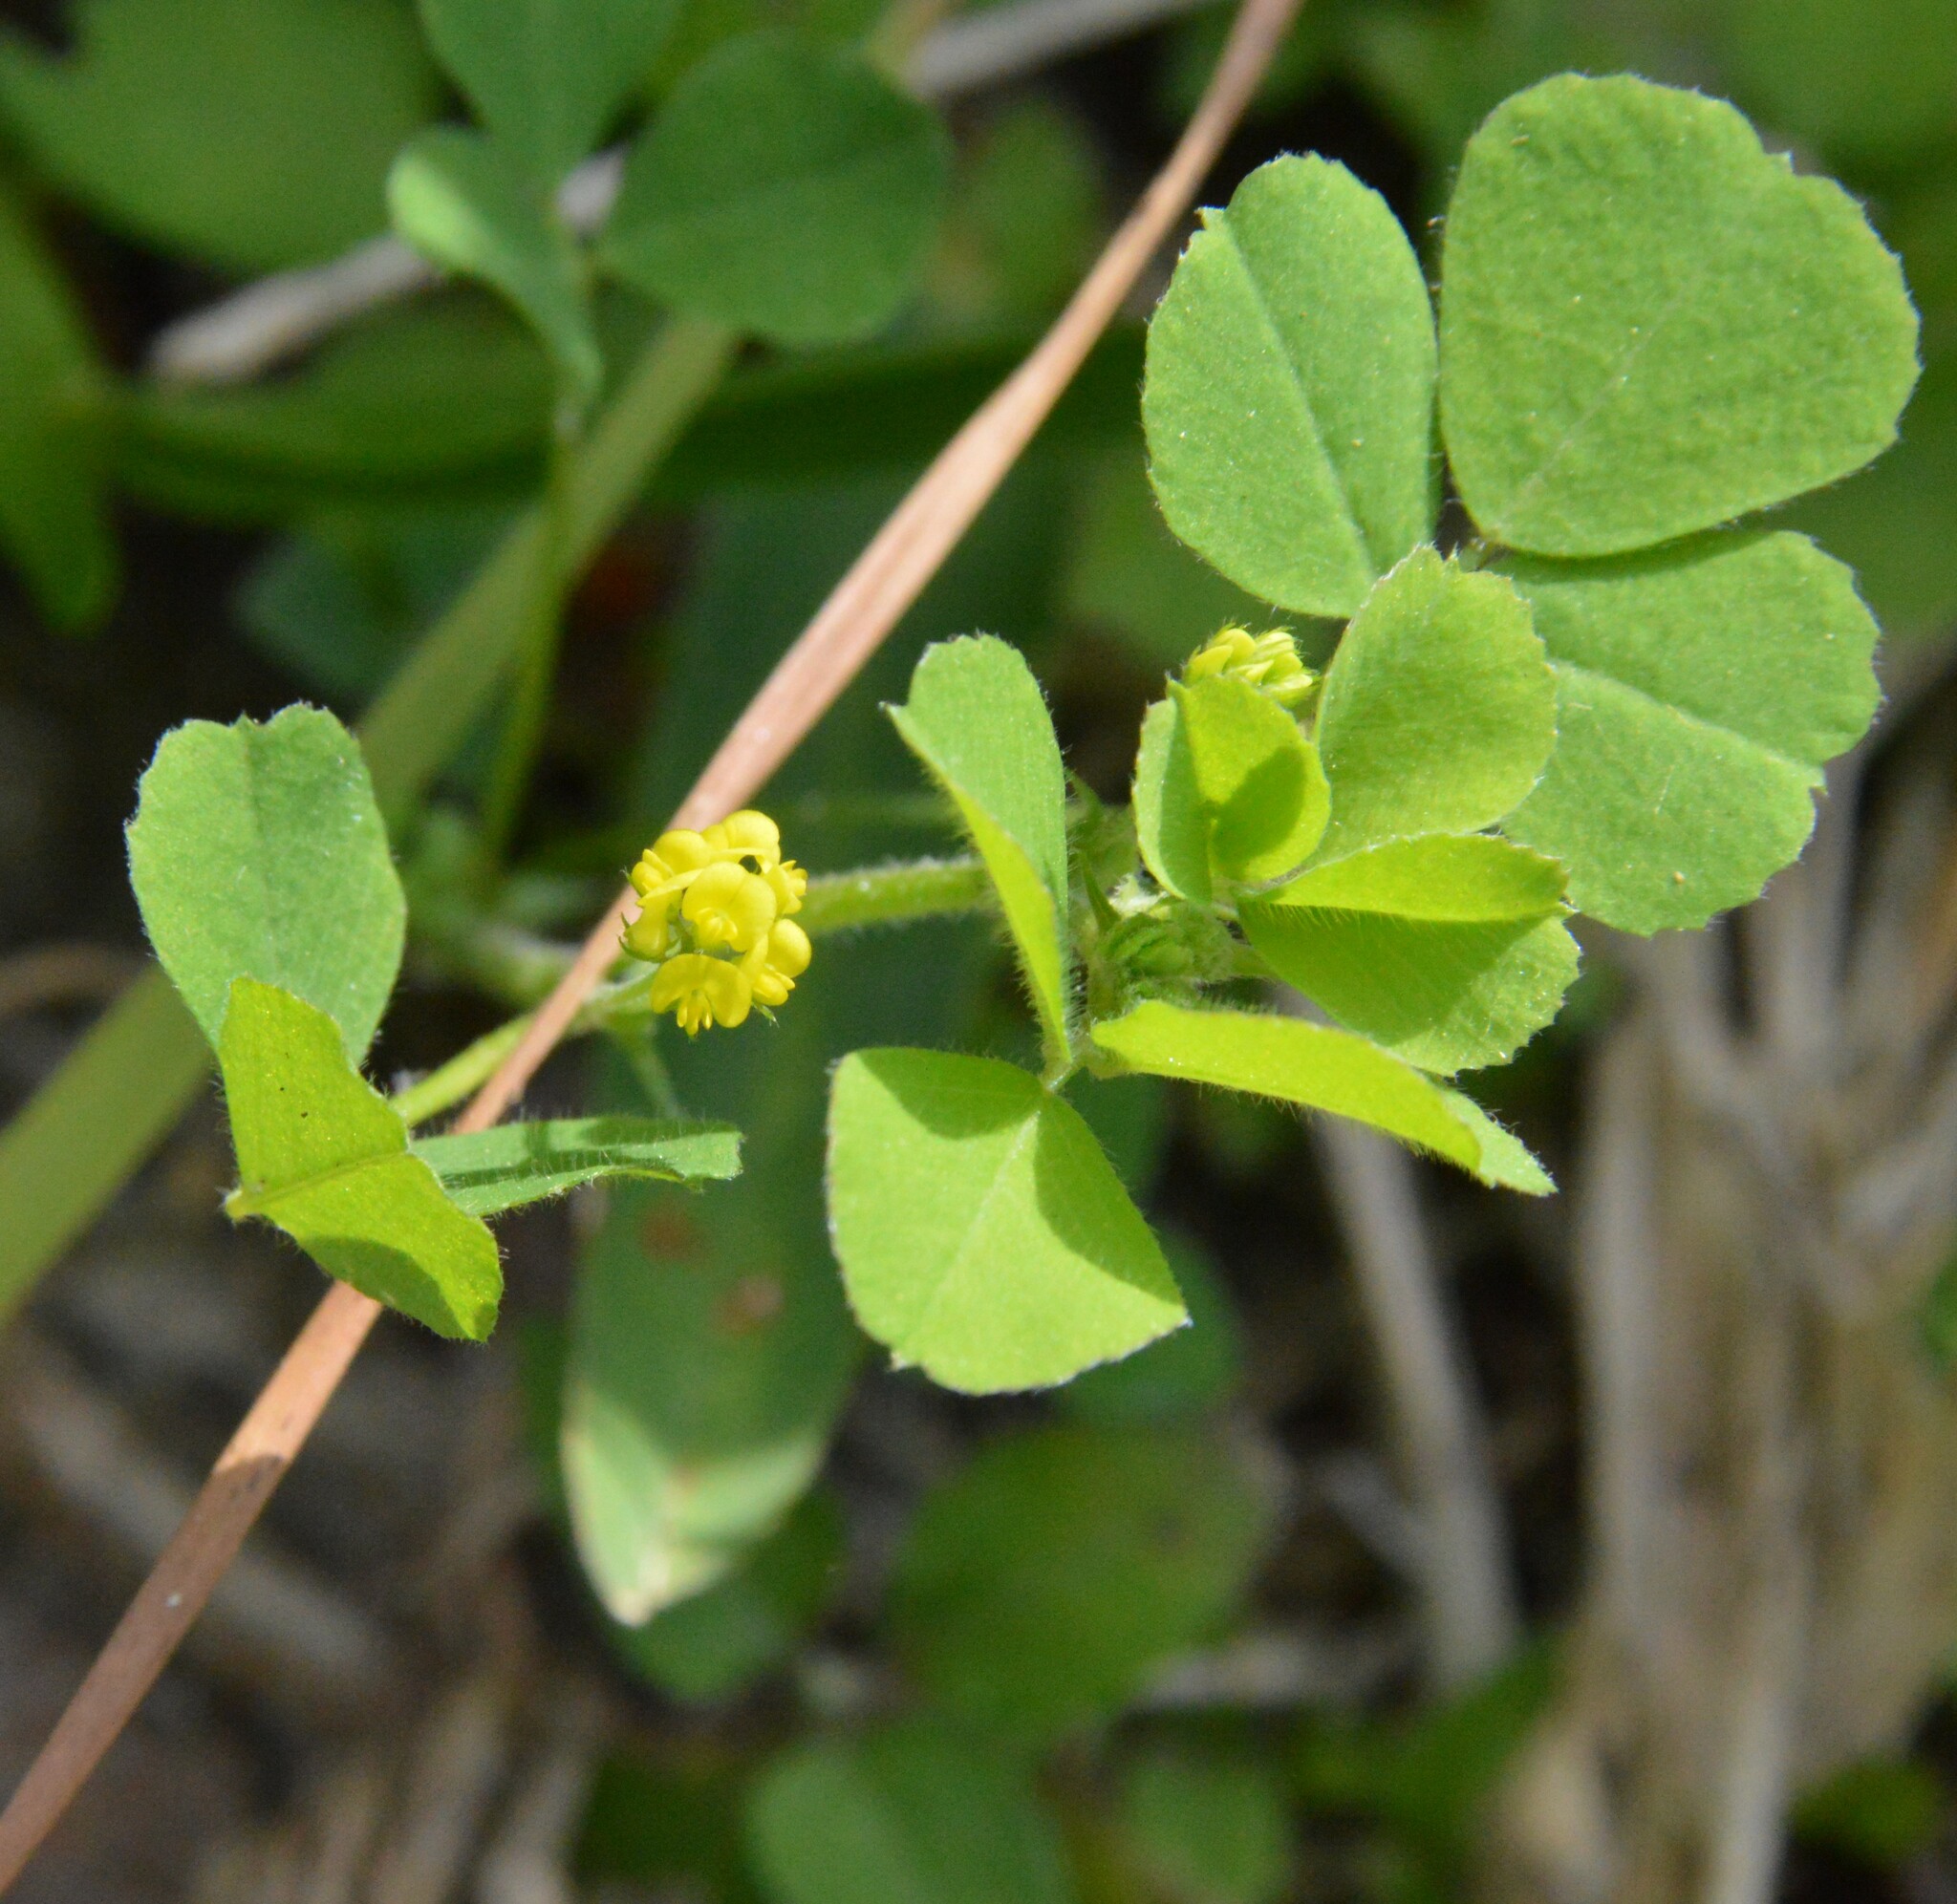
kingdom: Plantae
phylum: Tracheophyta
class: Magnoliopsida
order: Fabales
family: Fabaceae
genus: Medicago
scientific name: Medicago lupulina
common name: Black medick
